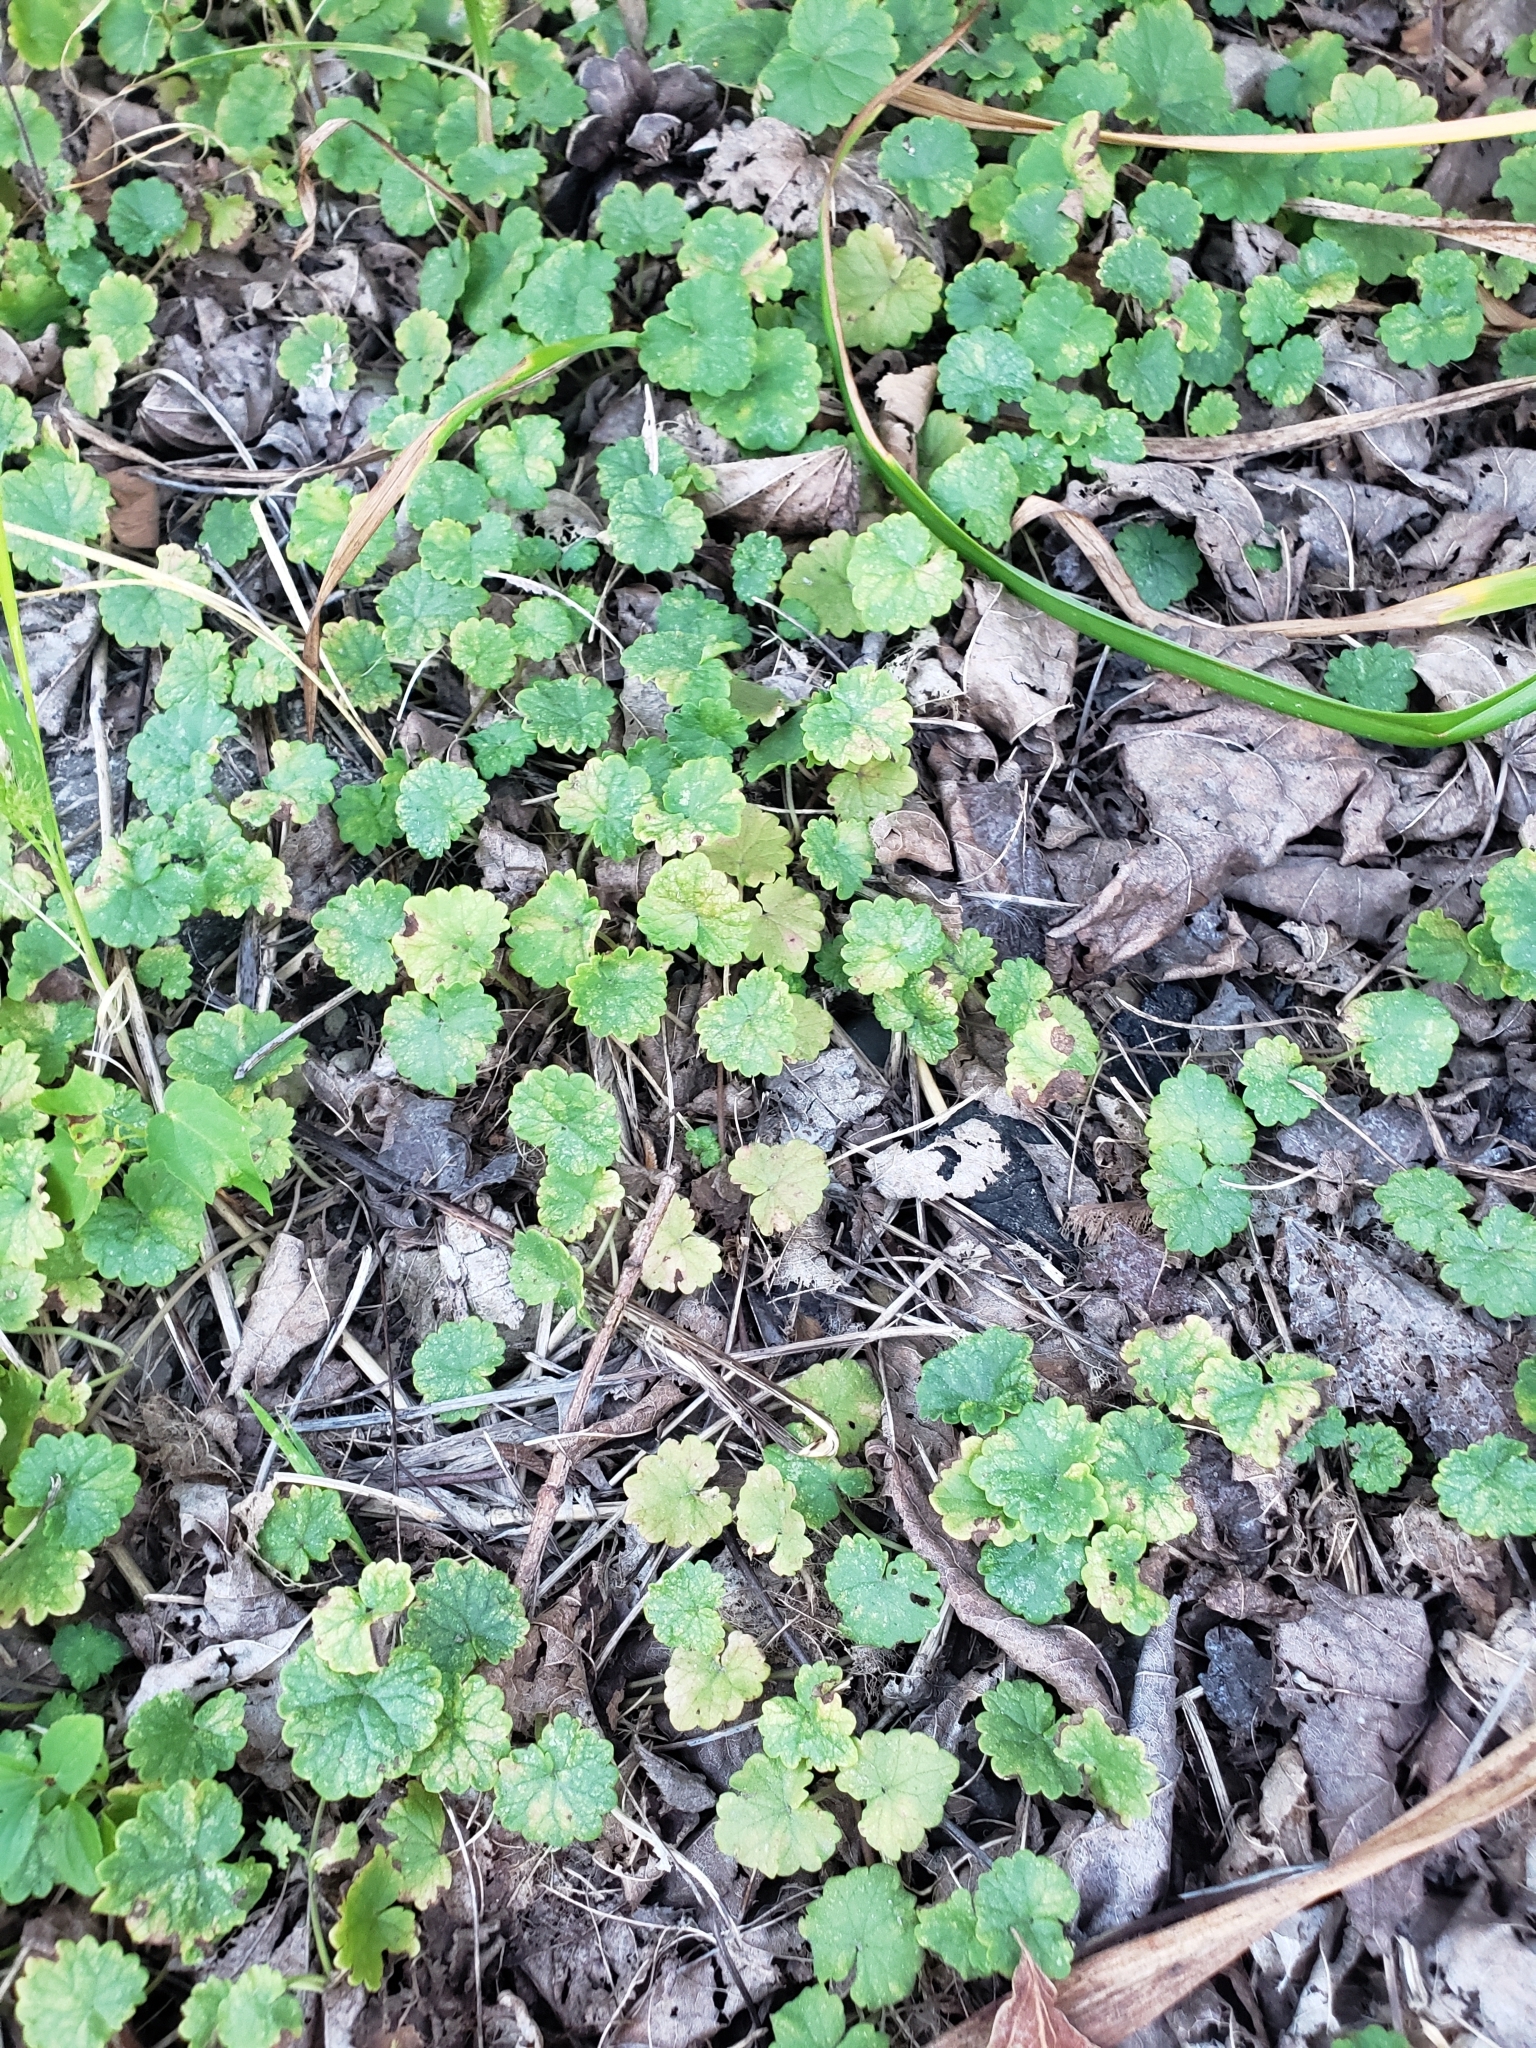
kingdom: Plantae
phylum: Tracheophyta
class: Magnoliopsida
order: Lamiales
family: Lamiaceae
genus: Glechoma
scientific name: Glechoma hederacea
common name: Ground ivy
